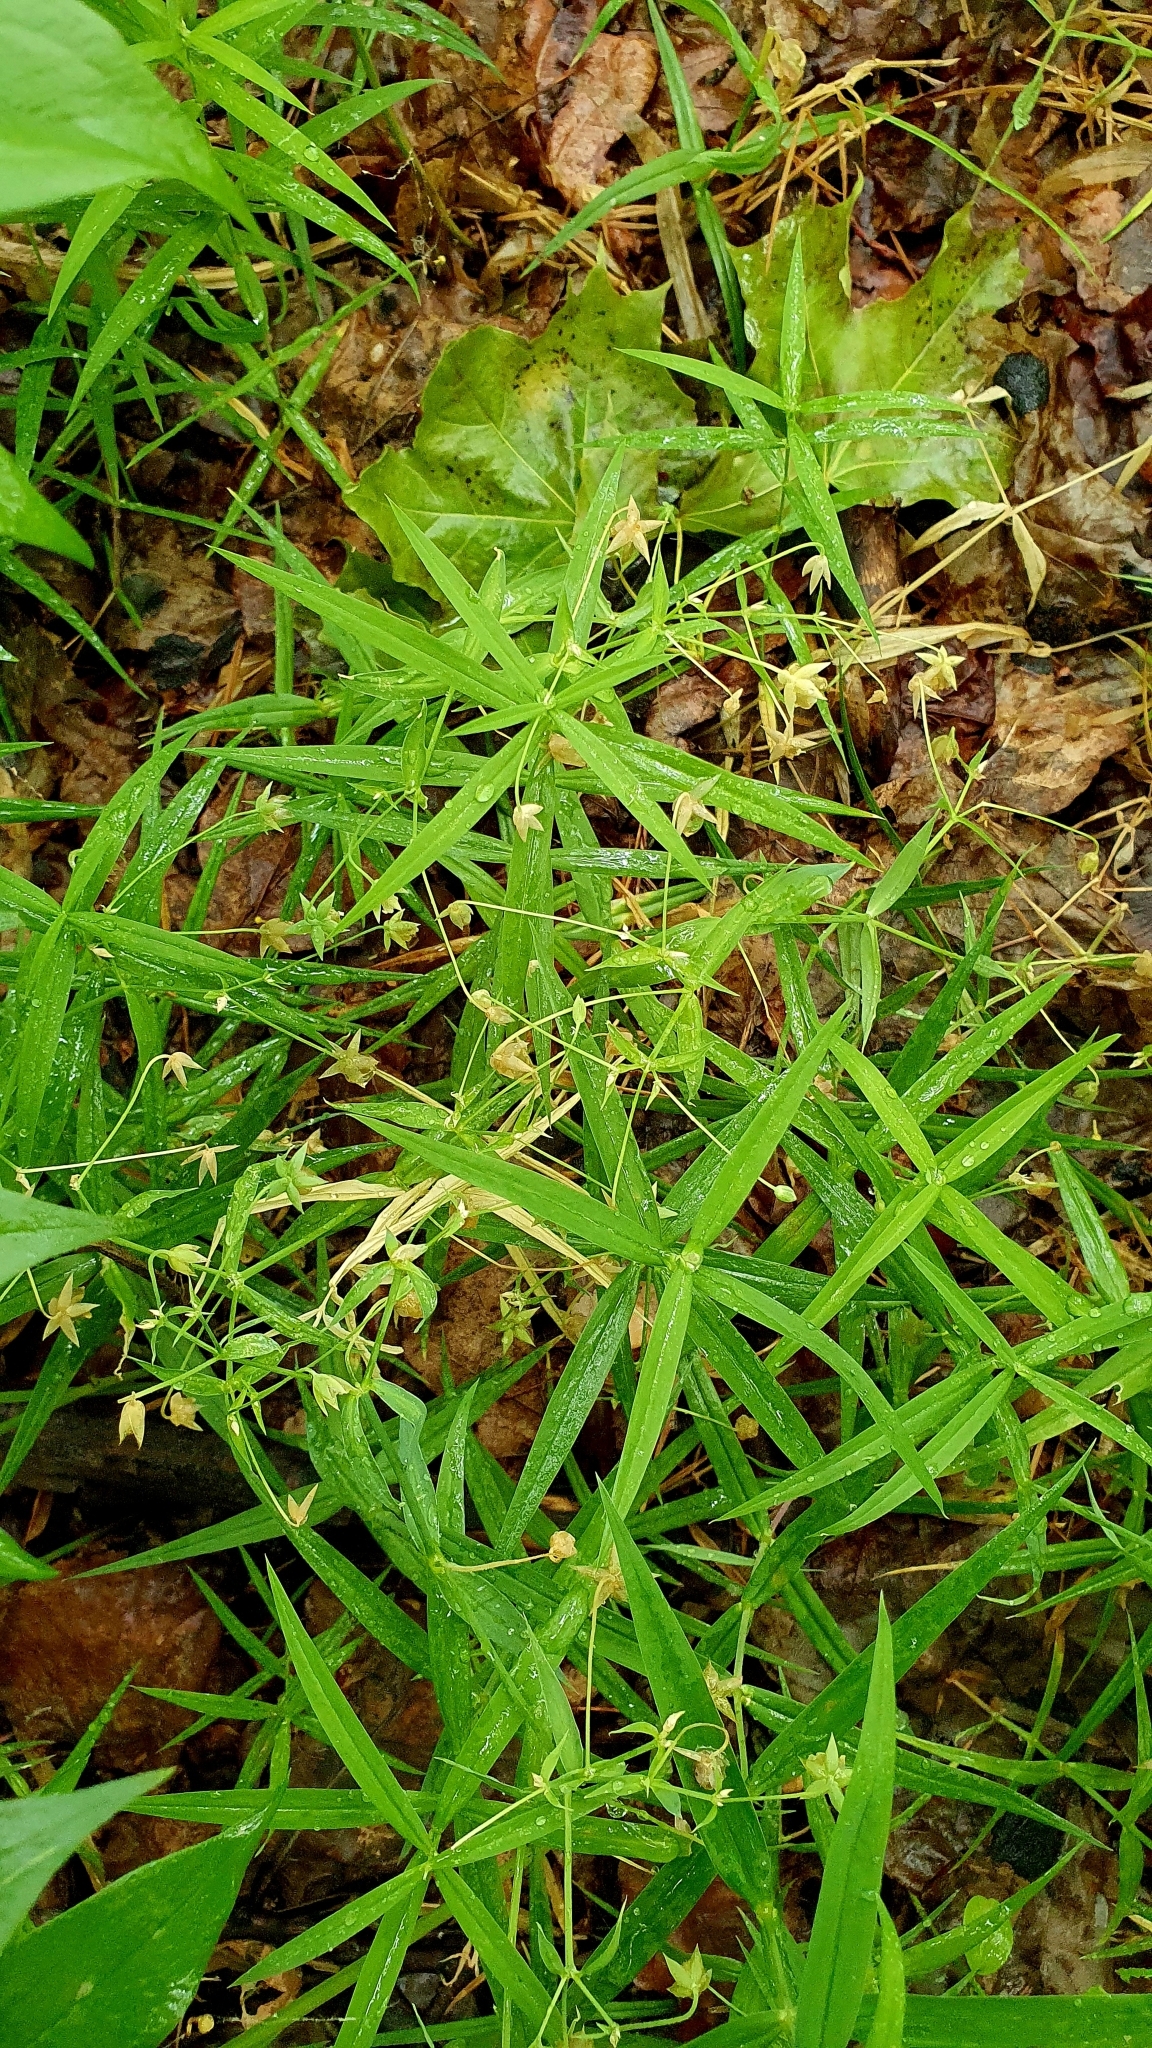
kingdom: Plantae
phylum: Tracheophyta
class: Magnoliopsida
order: Caryophyllales
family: Caryophyllaceae
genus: Rabelera
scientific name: Rabelera holostea
